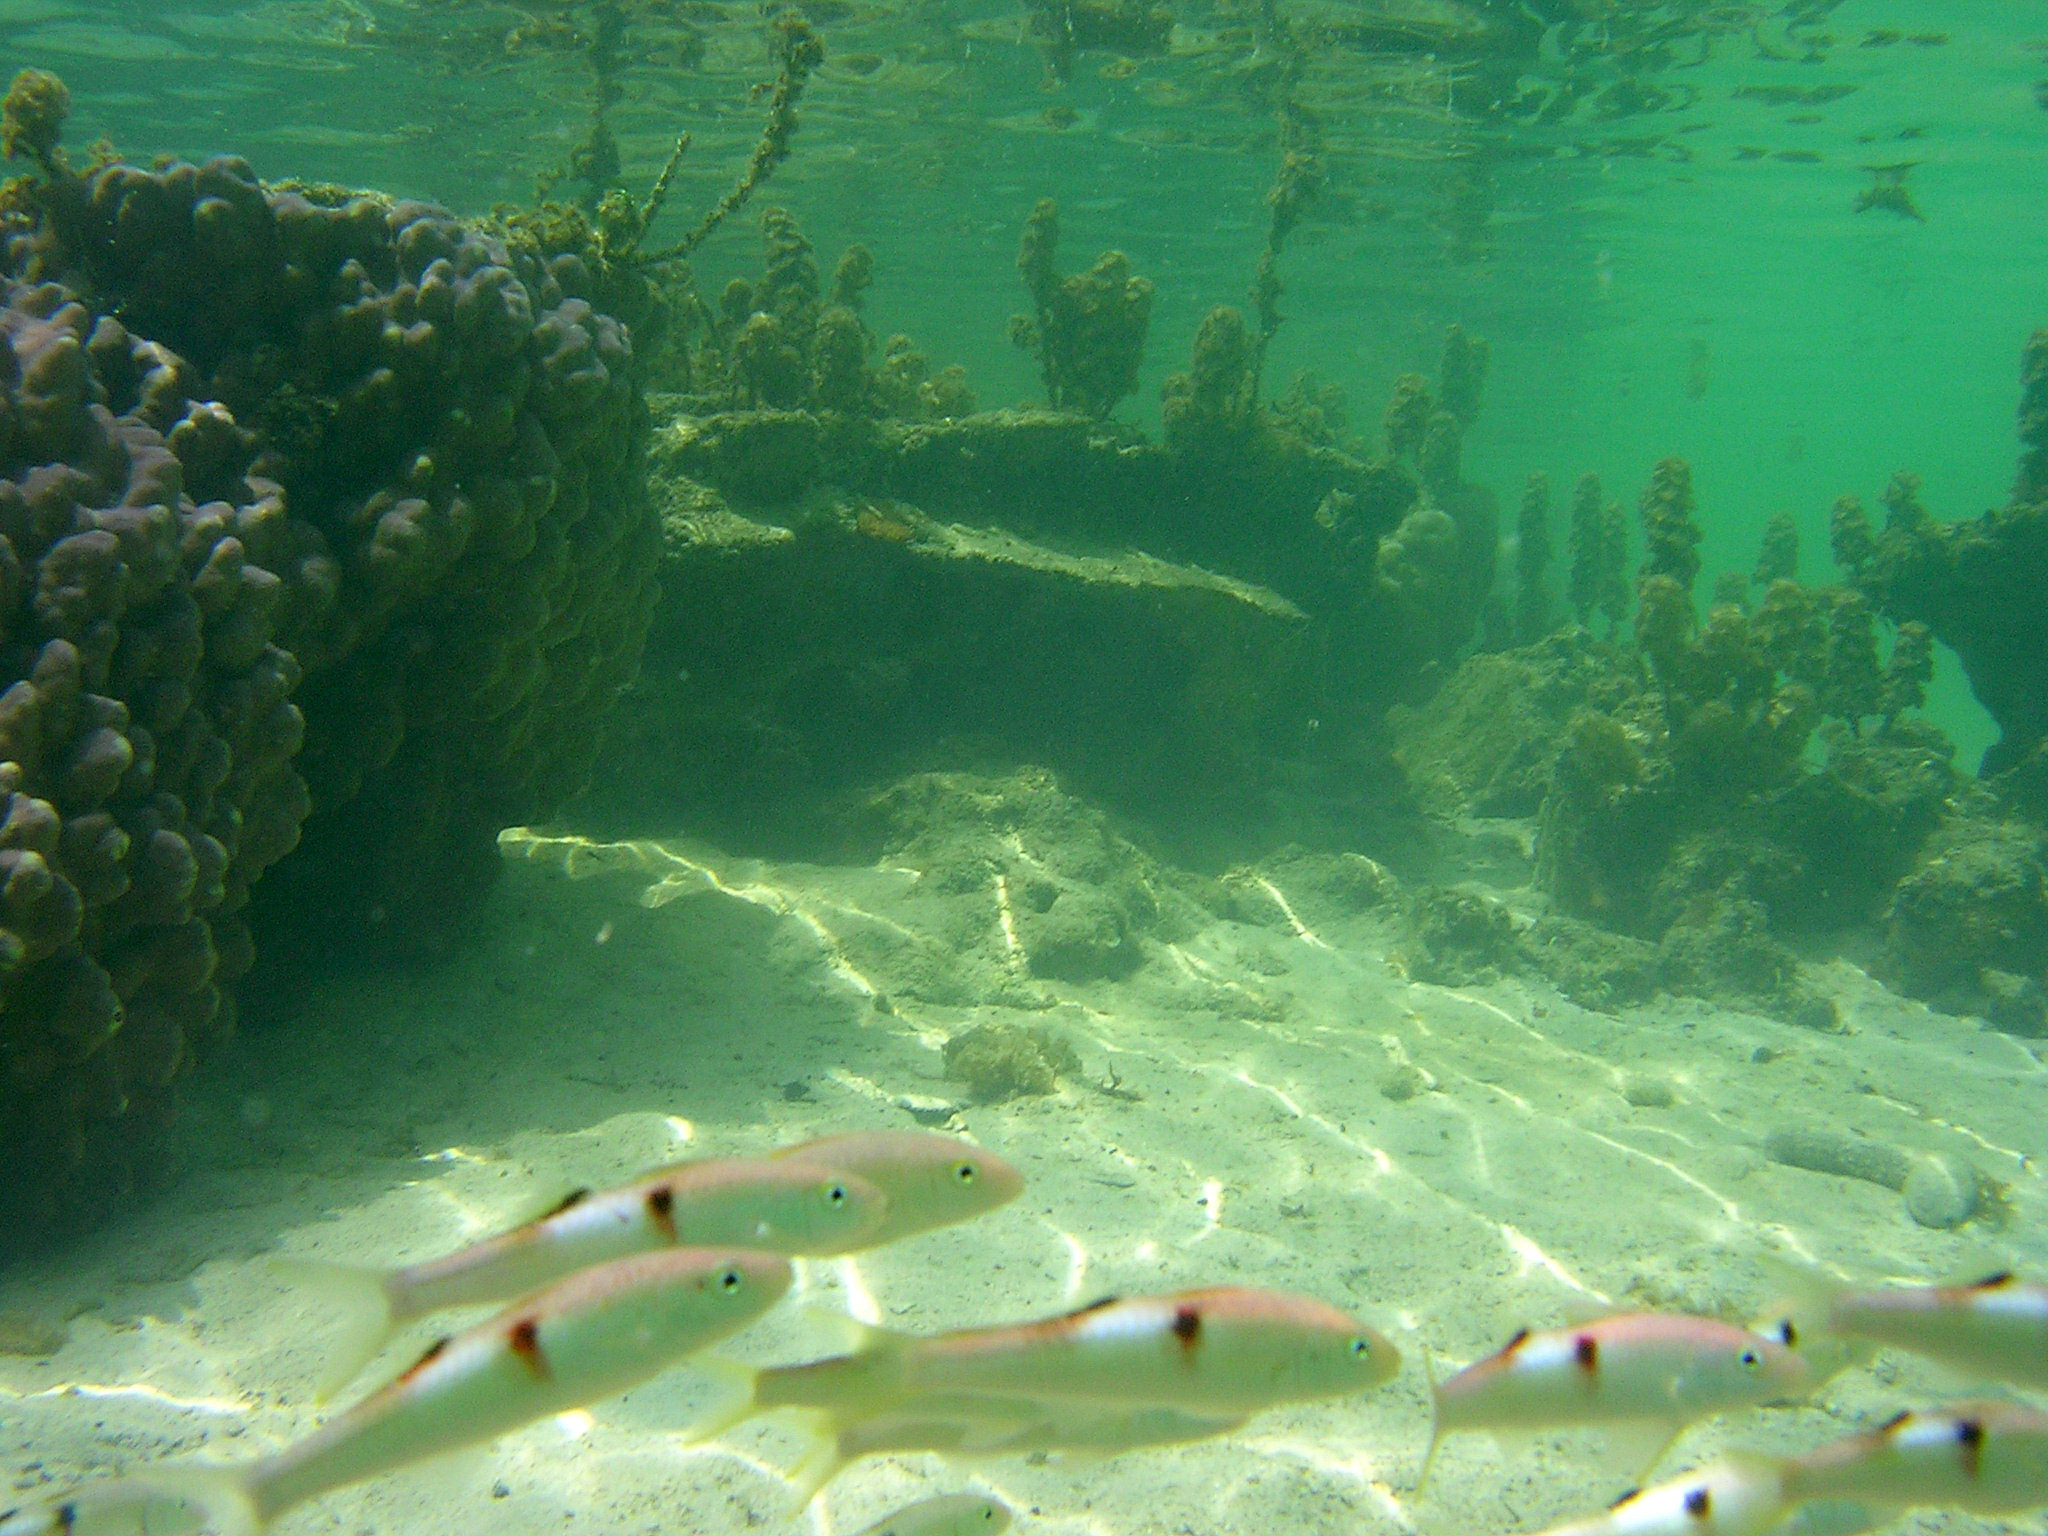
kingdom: Animalia
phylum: Chordata
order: Perciformes
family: Mullidae
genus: Parupeneus
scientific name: Parupeneus pleurostigma
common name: Sidespot goatfish
